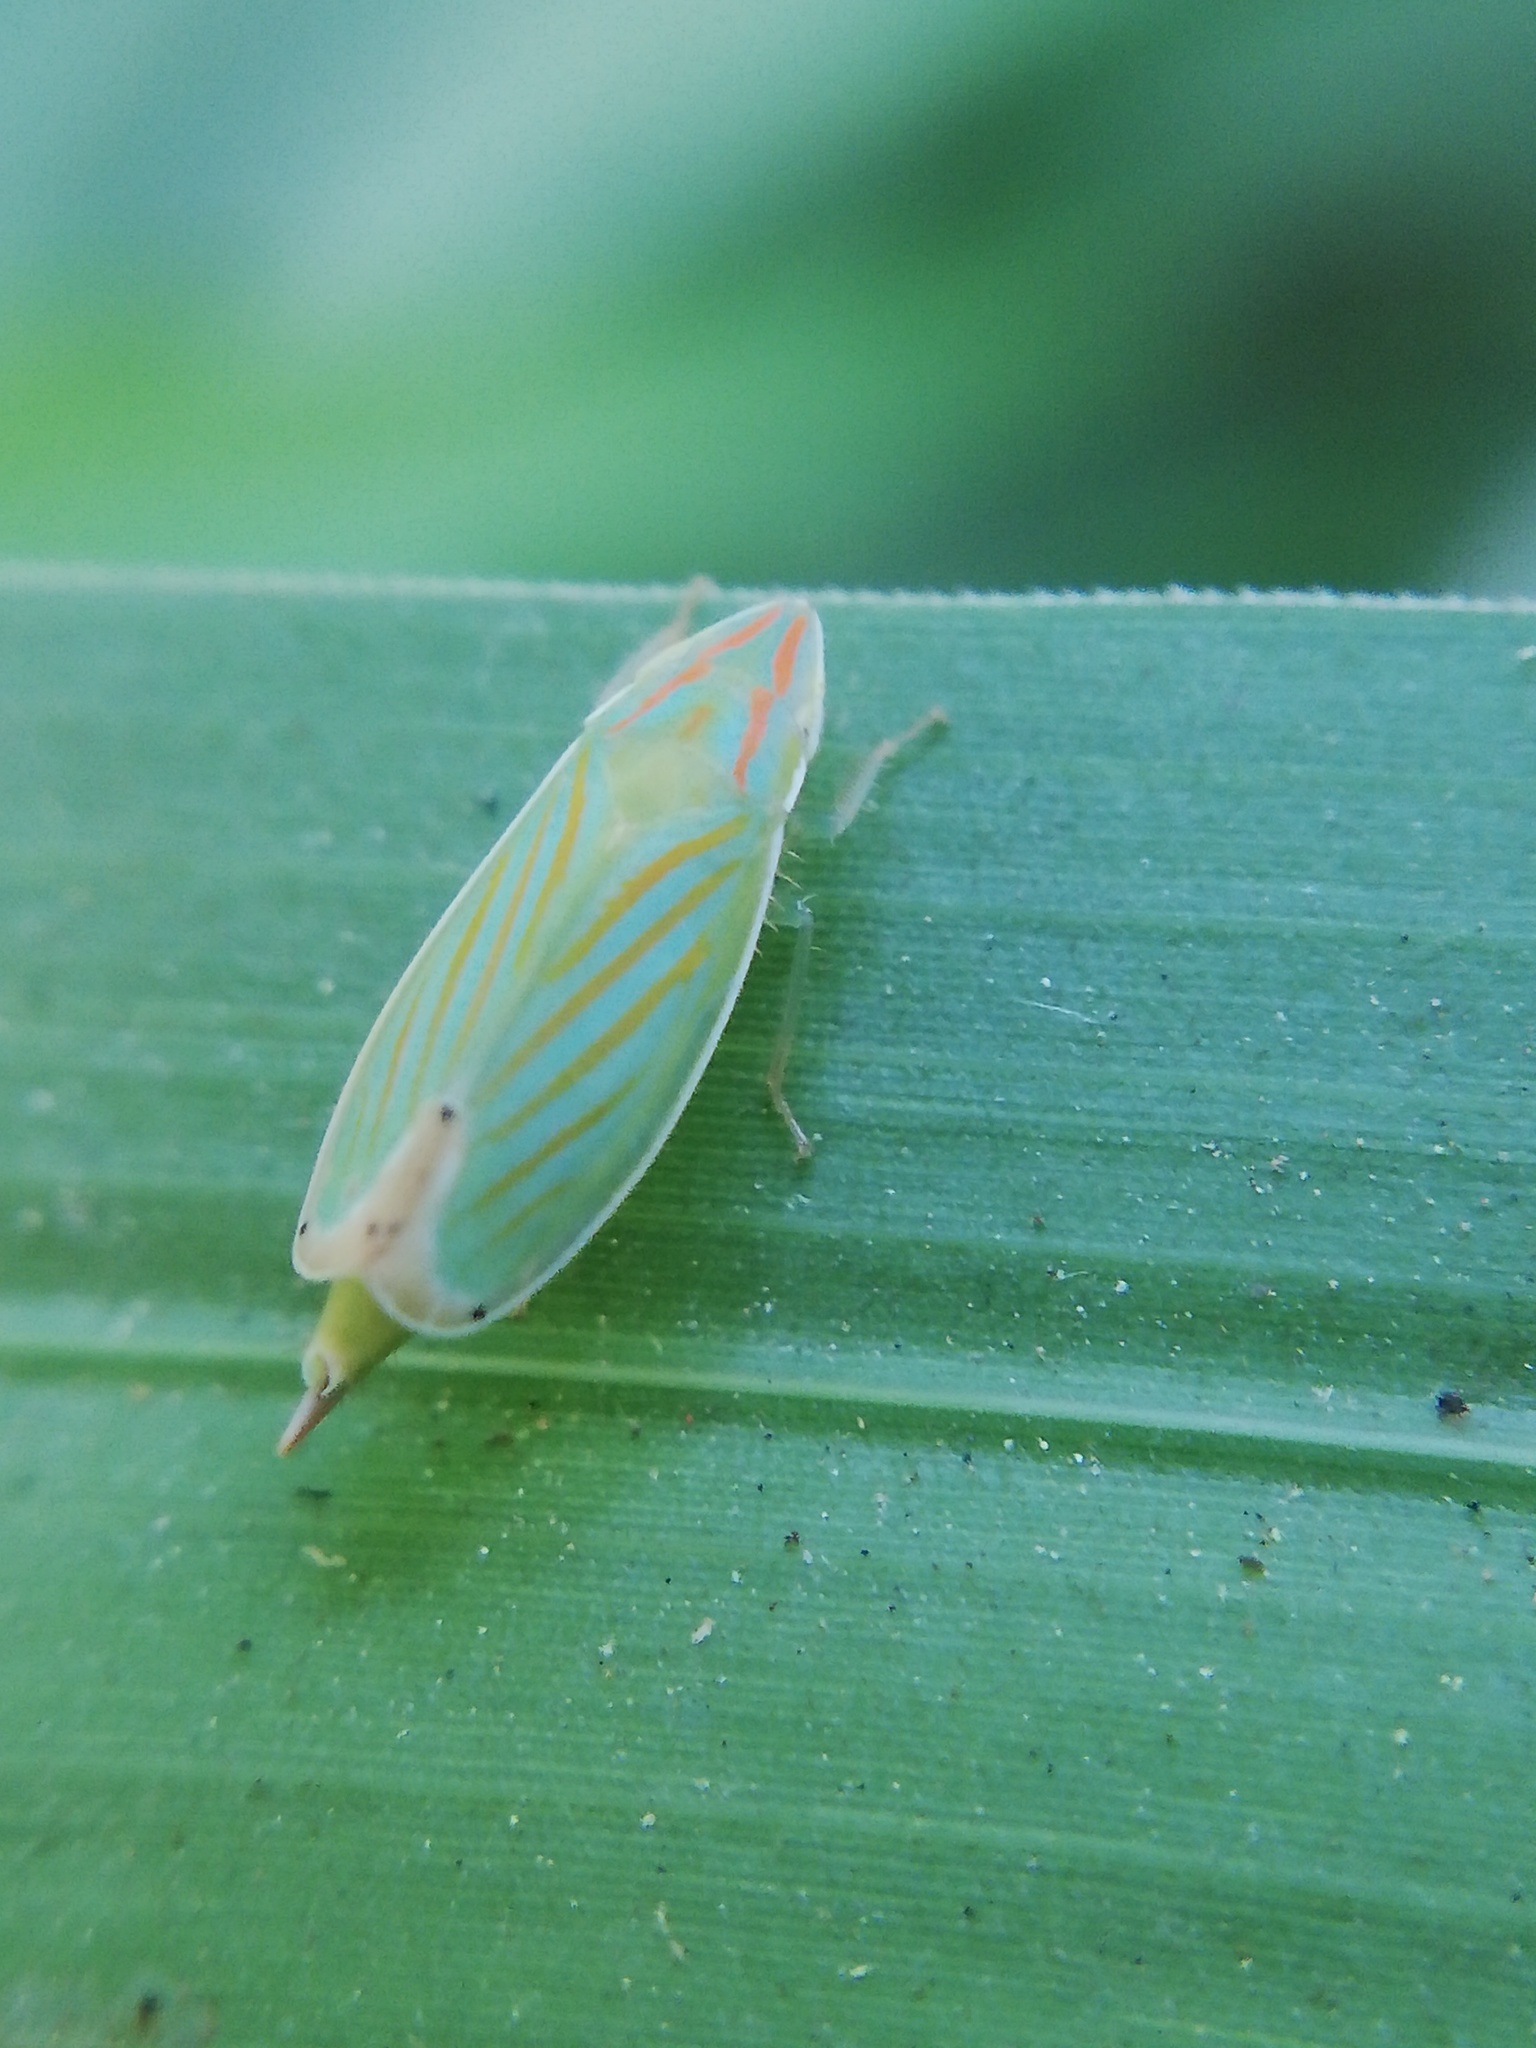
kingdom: Animalia
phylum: Arthropoda
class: Insecta
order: Hemiptera
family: Cicadellidae
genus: Spangbergiella
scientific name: Spangbergiella mexicana
